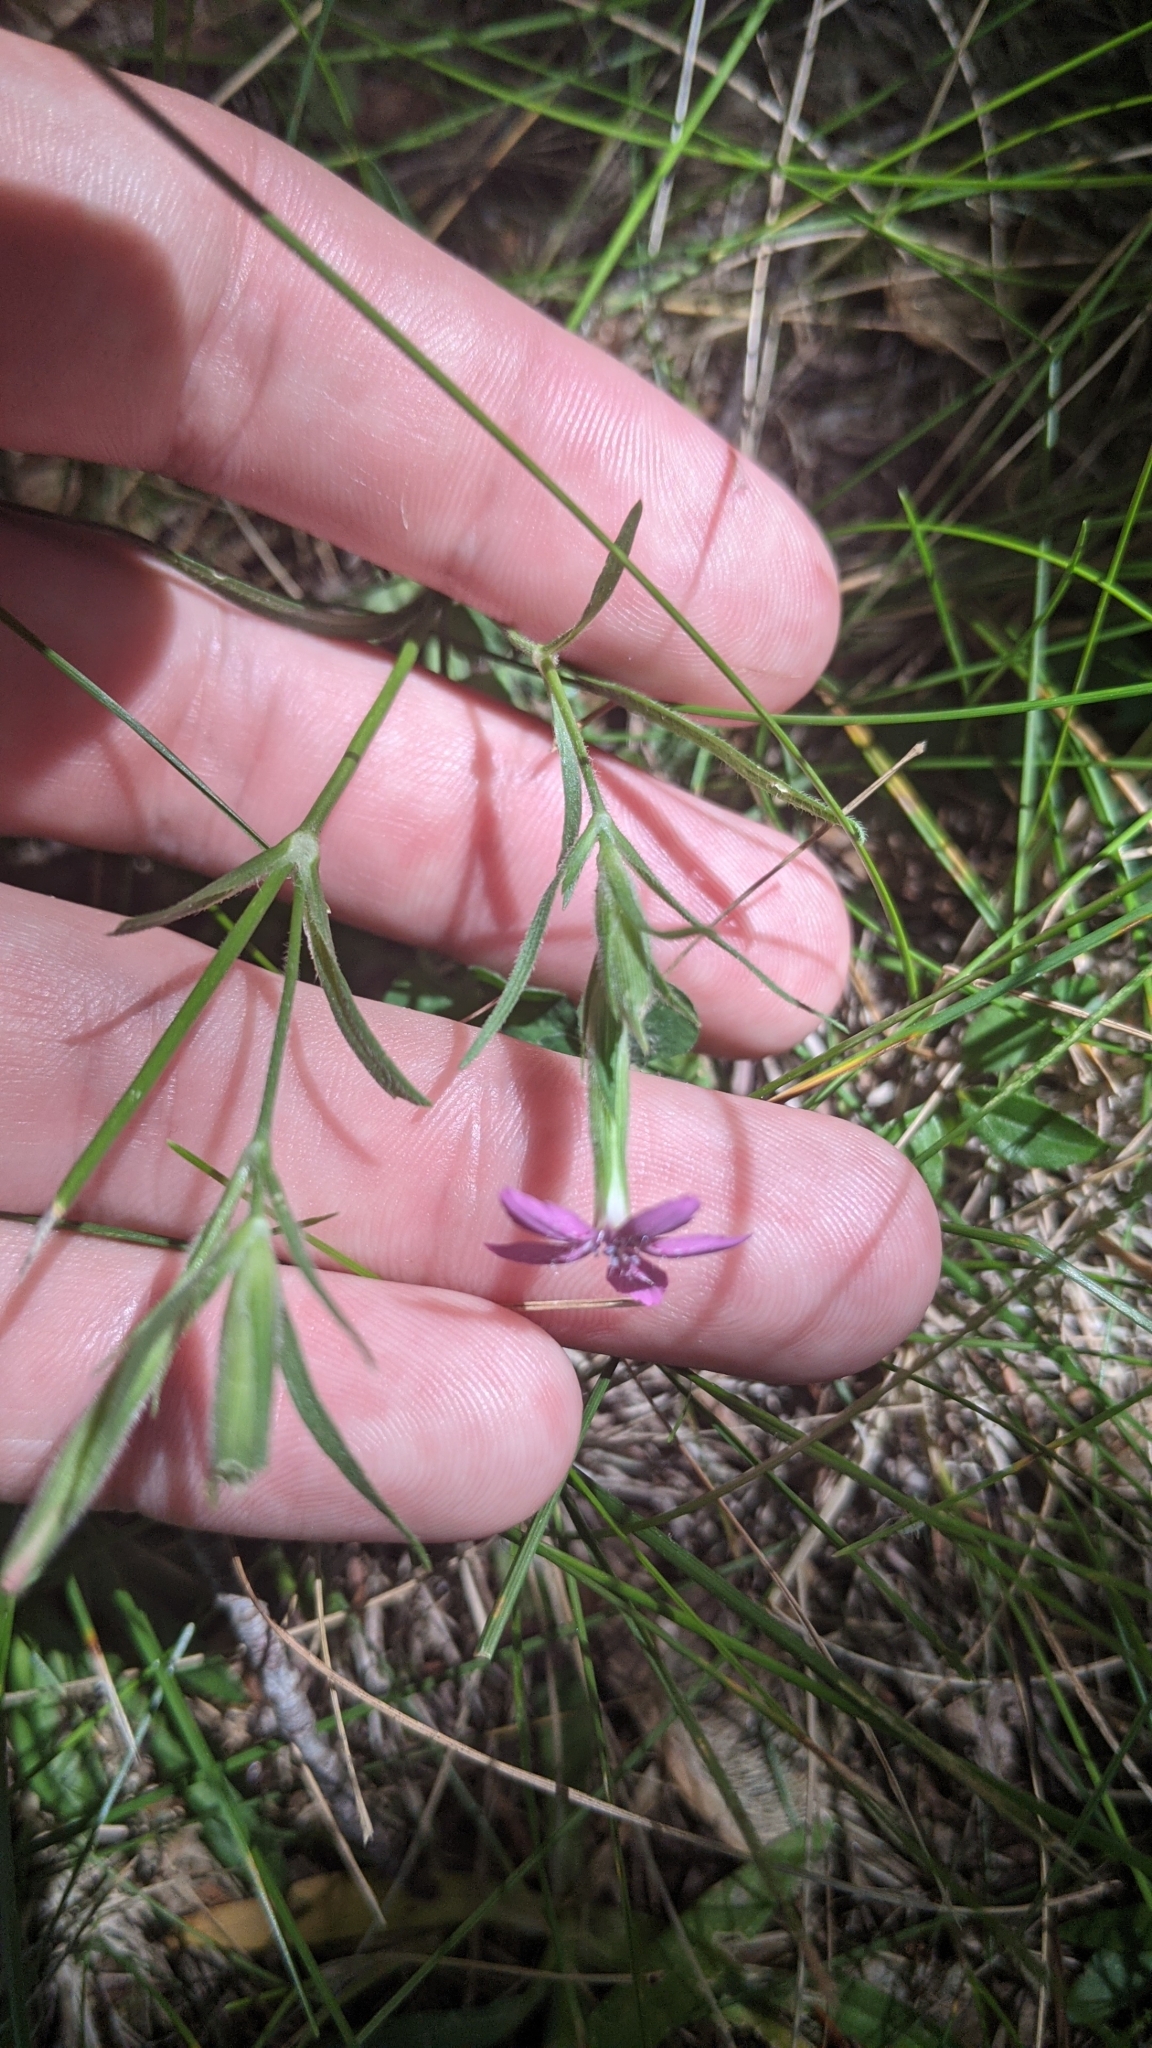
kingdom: Plantae
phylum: Tracheophyta
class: Magnoliopsida
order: Caryophyllales
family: Caryophyllaceae
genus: Dianthus
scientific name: Dianthus armeria
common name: Deptford pink
